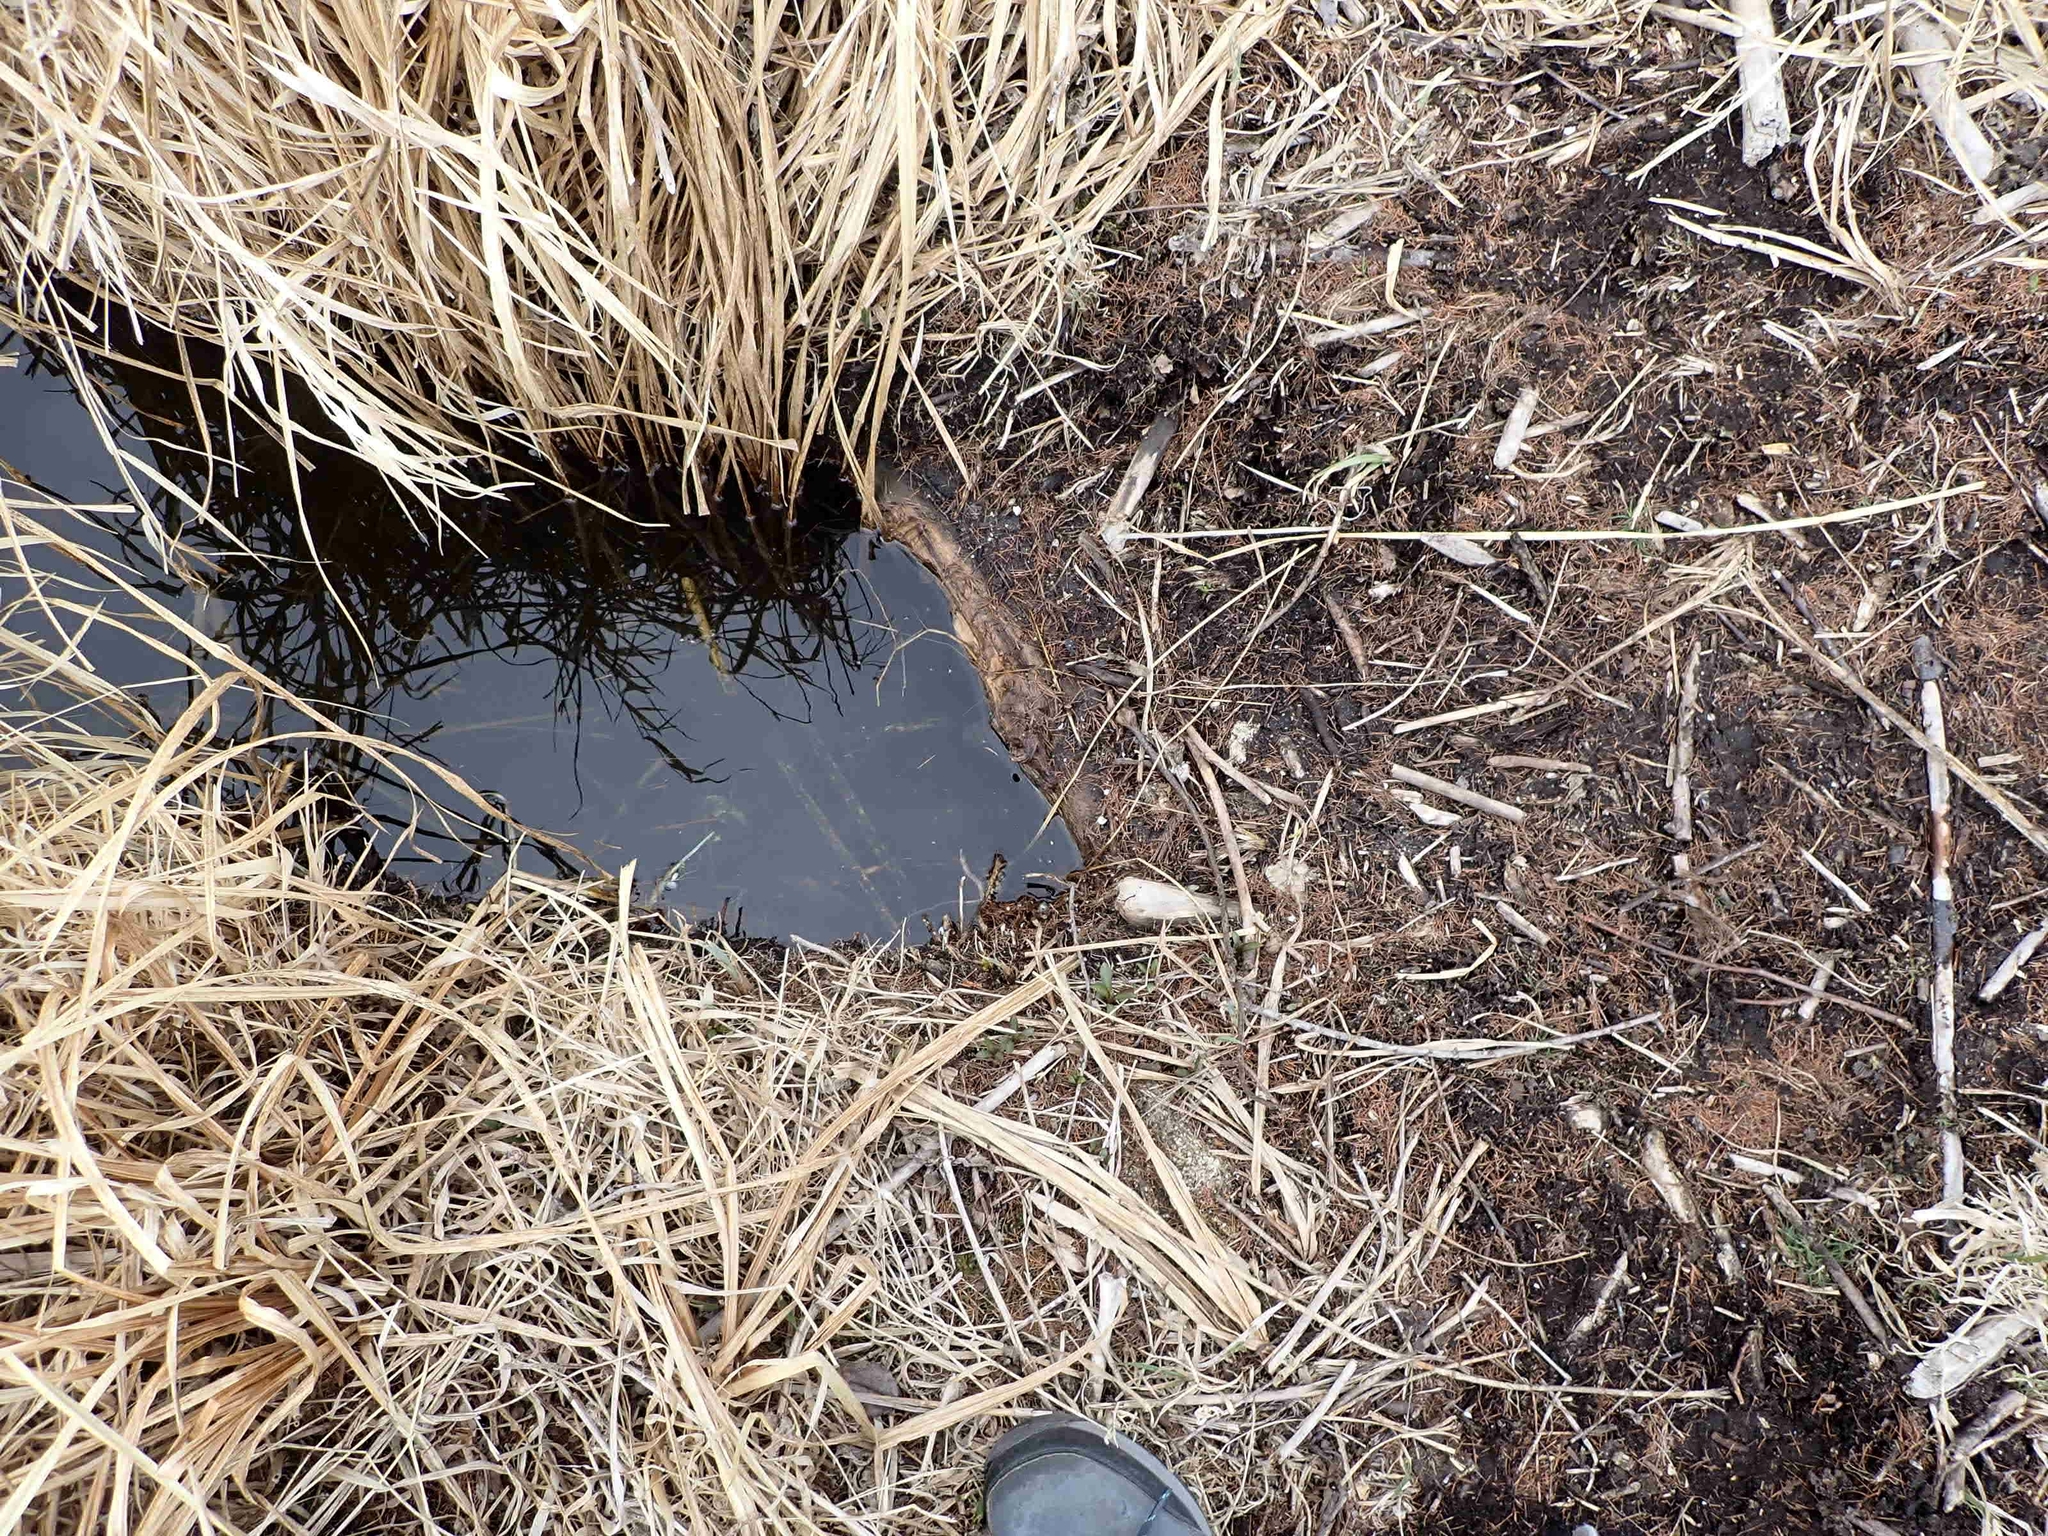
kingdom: Animalia
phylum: Chordata
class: Mammalia
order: Rodentia
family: Castoridae
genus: Castor
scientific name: Castor canadensis
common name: American beaver
